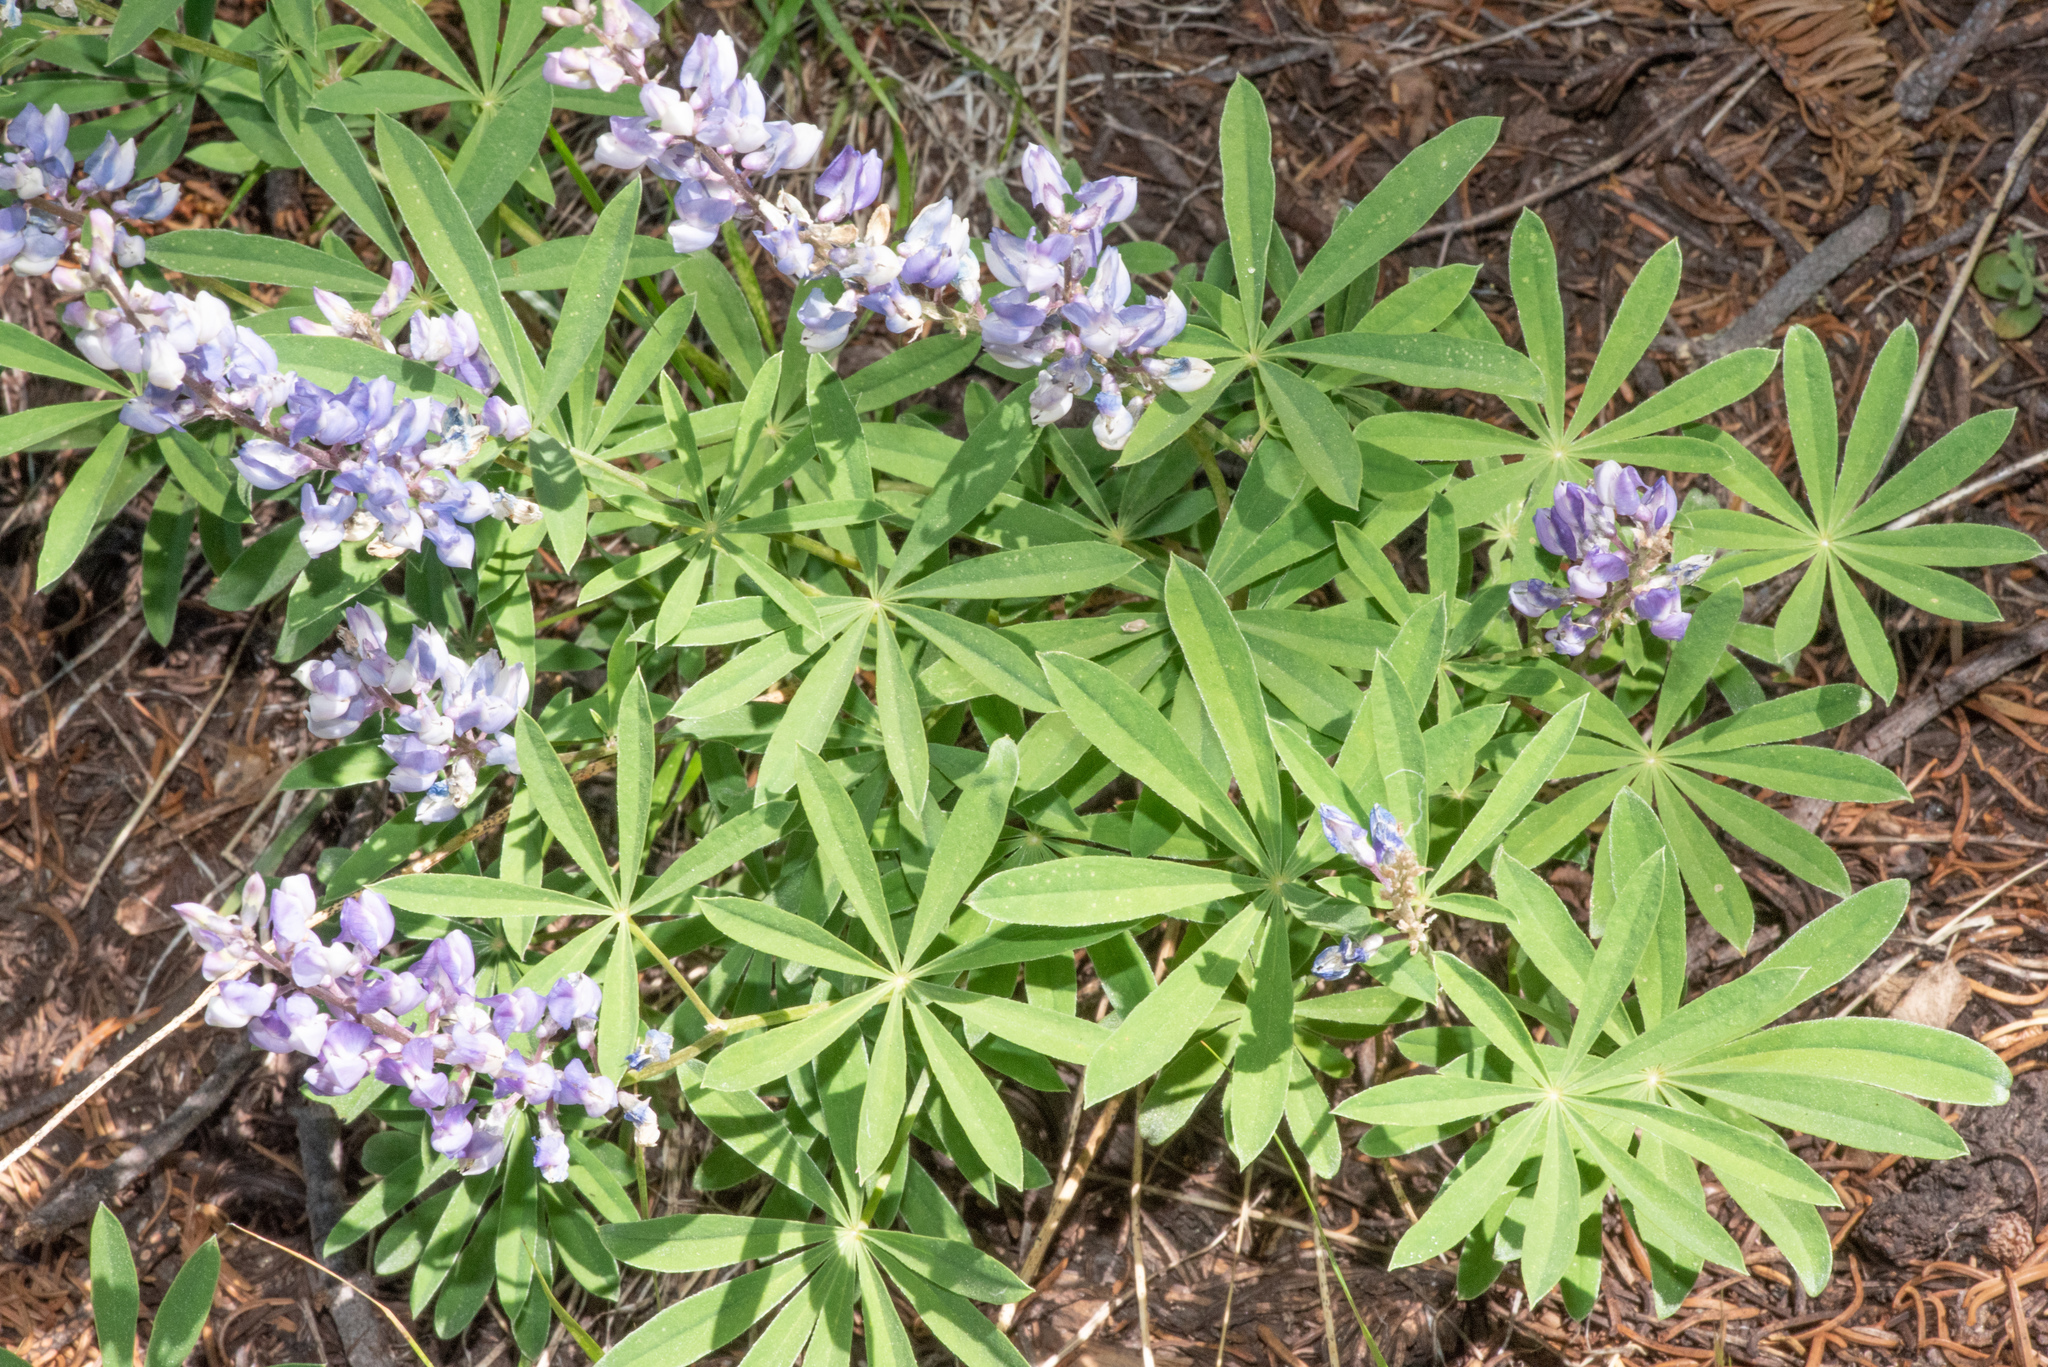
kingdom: Plantae
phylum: Tracheophyta
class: Magnoliopsida
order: Fabales
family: Fabaceae
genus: Lupinus
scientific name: Lupinus arbustus
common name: Montana lupine
